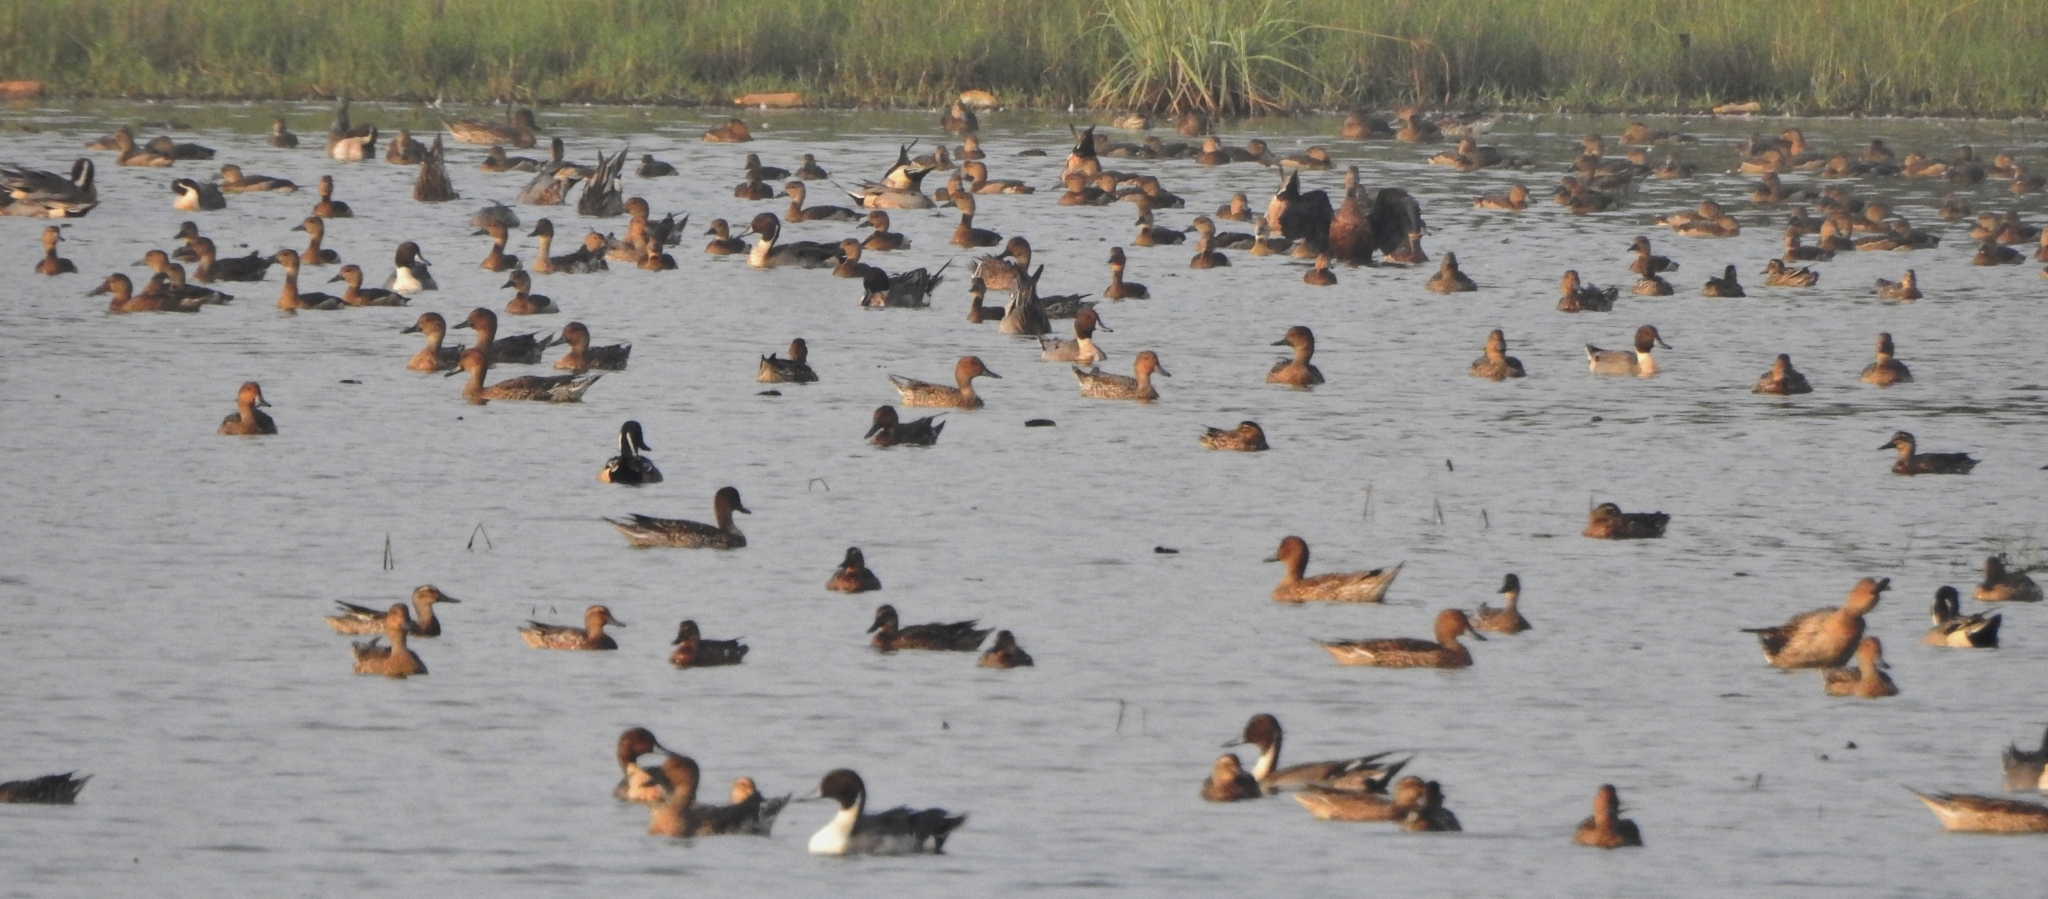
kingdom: Animalia
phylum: Chordata
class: Aves
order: Anseriformes
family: Anatidae
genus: Anas
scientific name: Anas acuta
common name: Northern pintail
